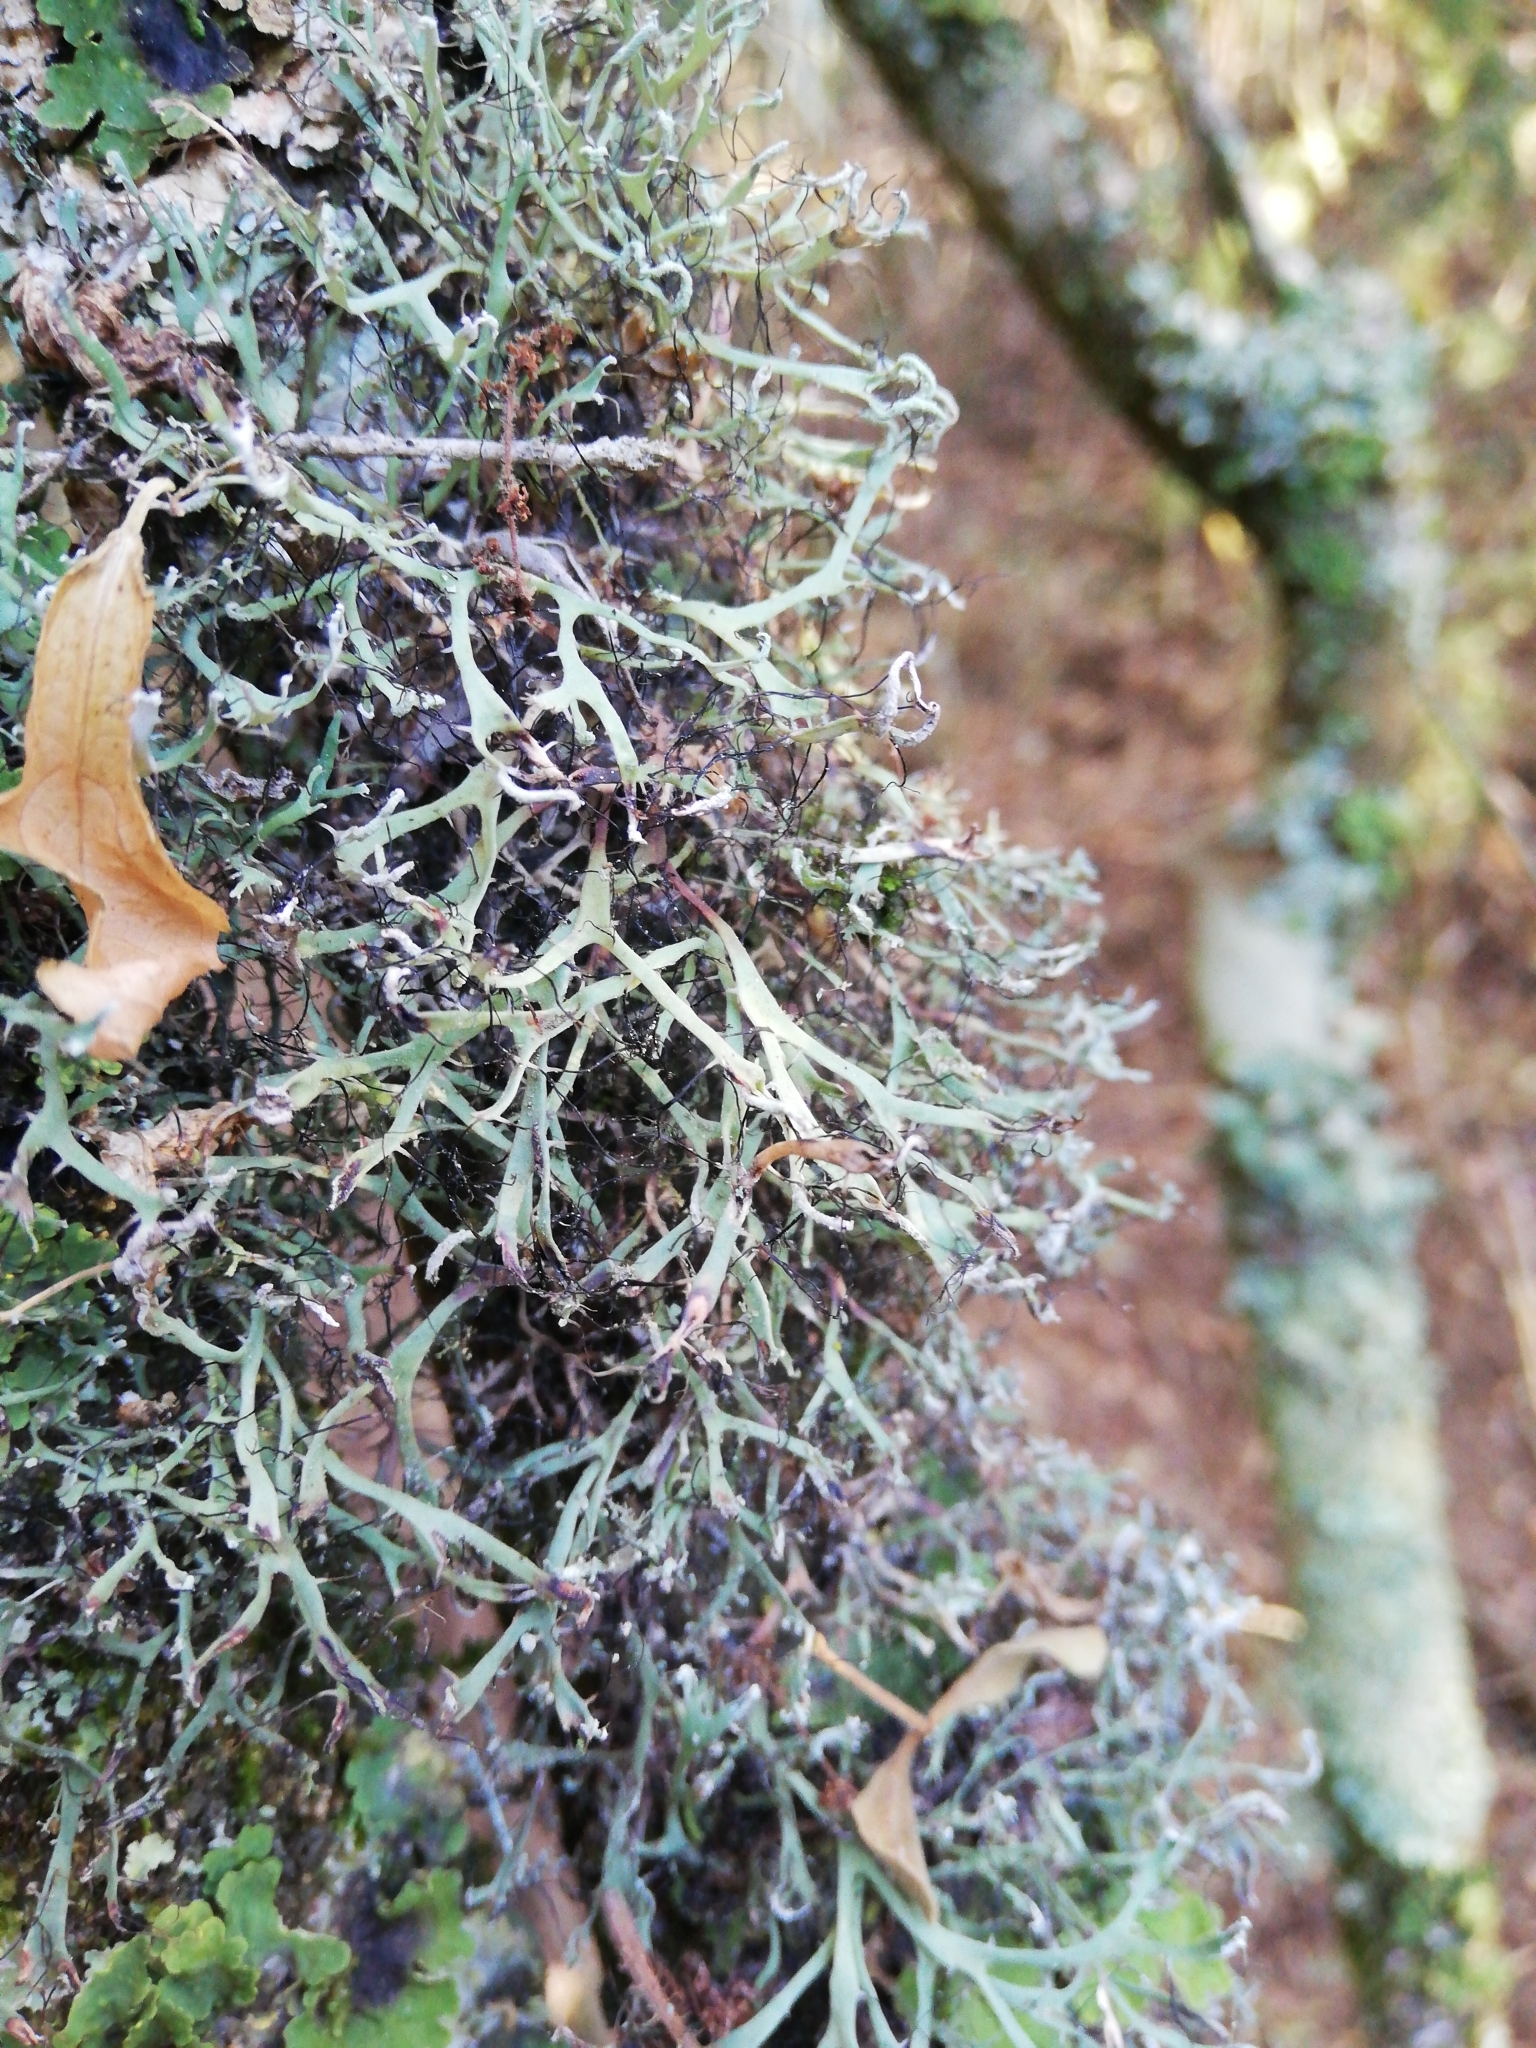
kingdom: Fungi
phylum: Ascomycota
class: Lecanoromycetes
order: Caliciales
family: Physciaceae
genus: Leucodermia
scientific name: Leucodermia leucomelos
